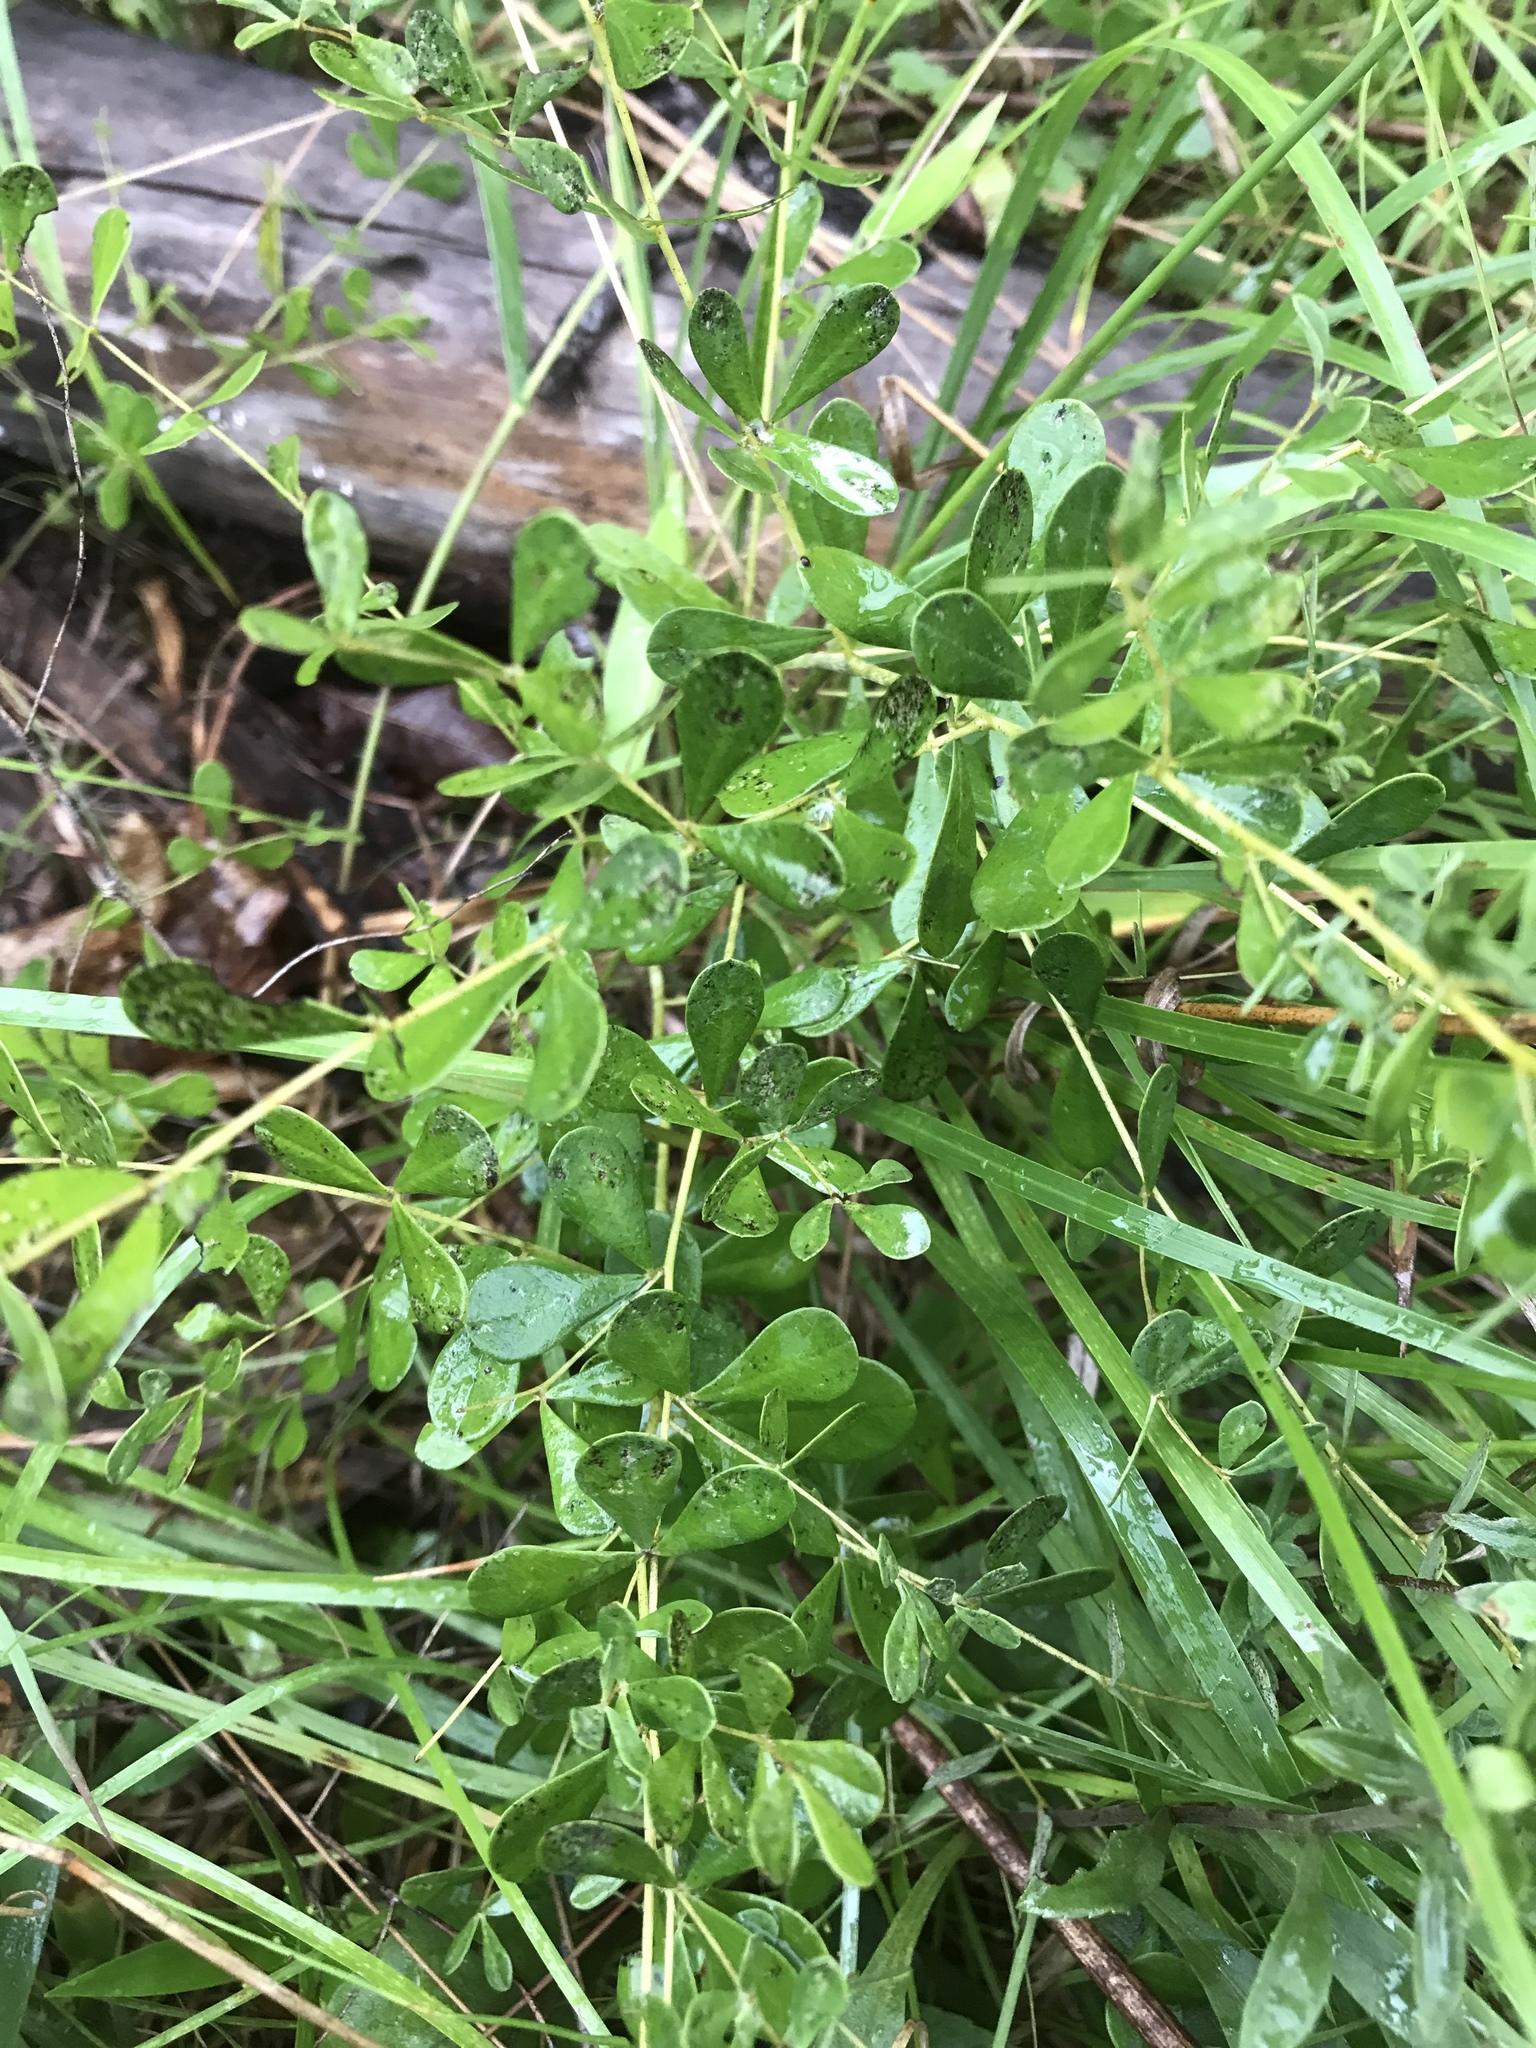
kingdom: Plantae
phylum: Tracheophyta
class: Magnoliopsida
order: Fabales
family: Fabaceae
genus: Baptisia
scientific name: Baptisia tinctoria
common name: Wild indigo
